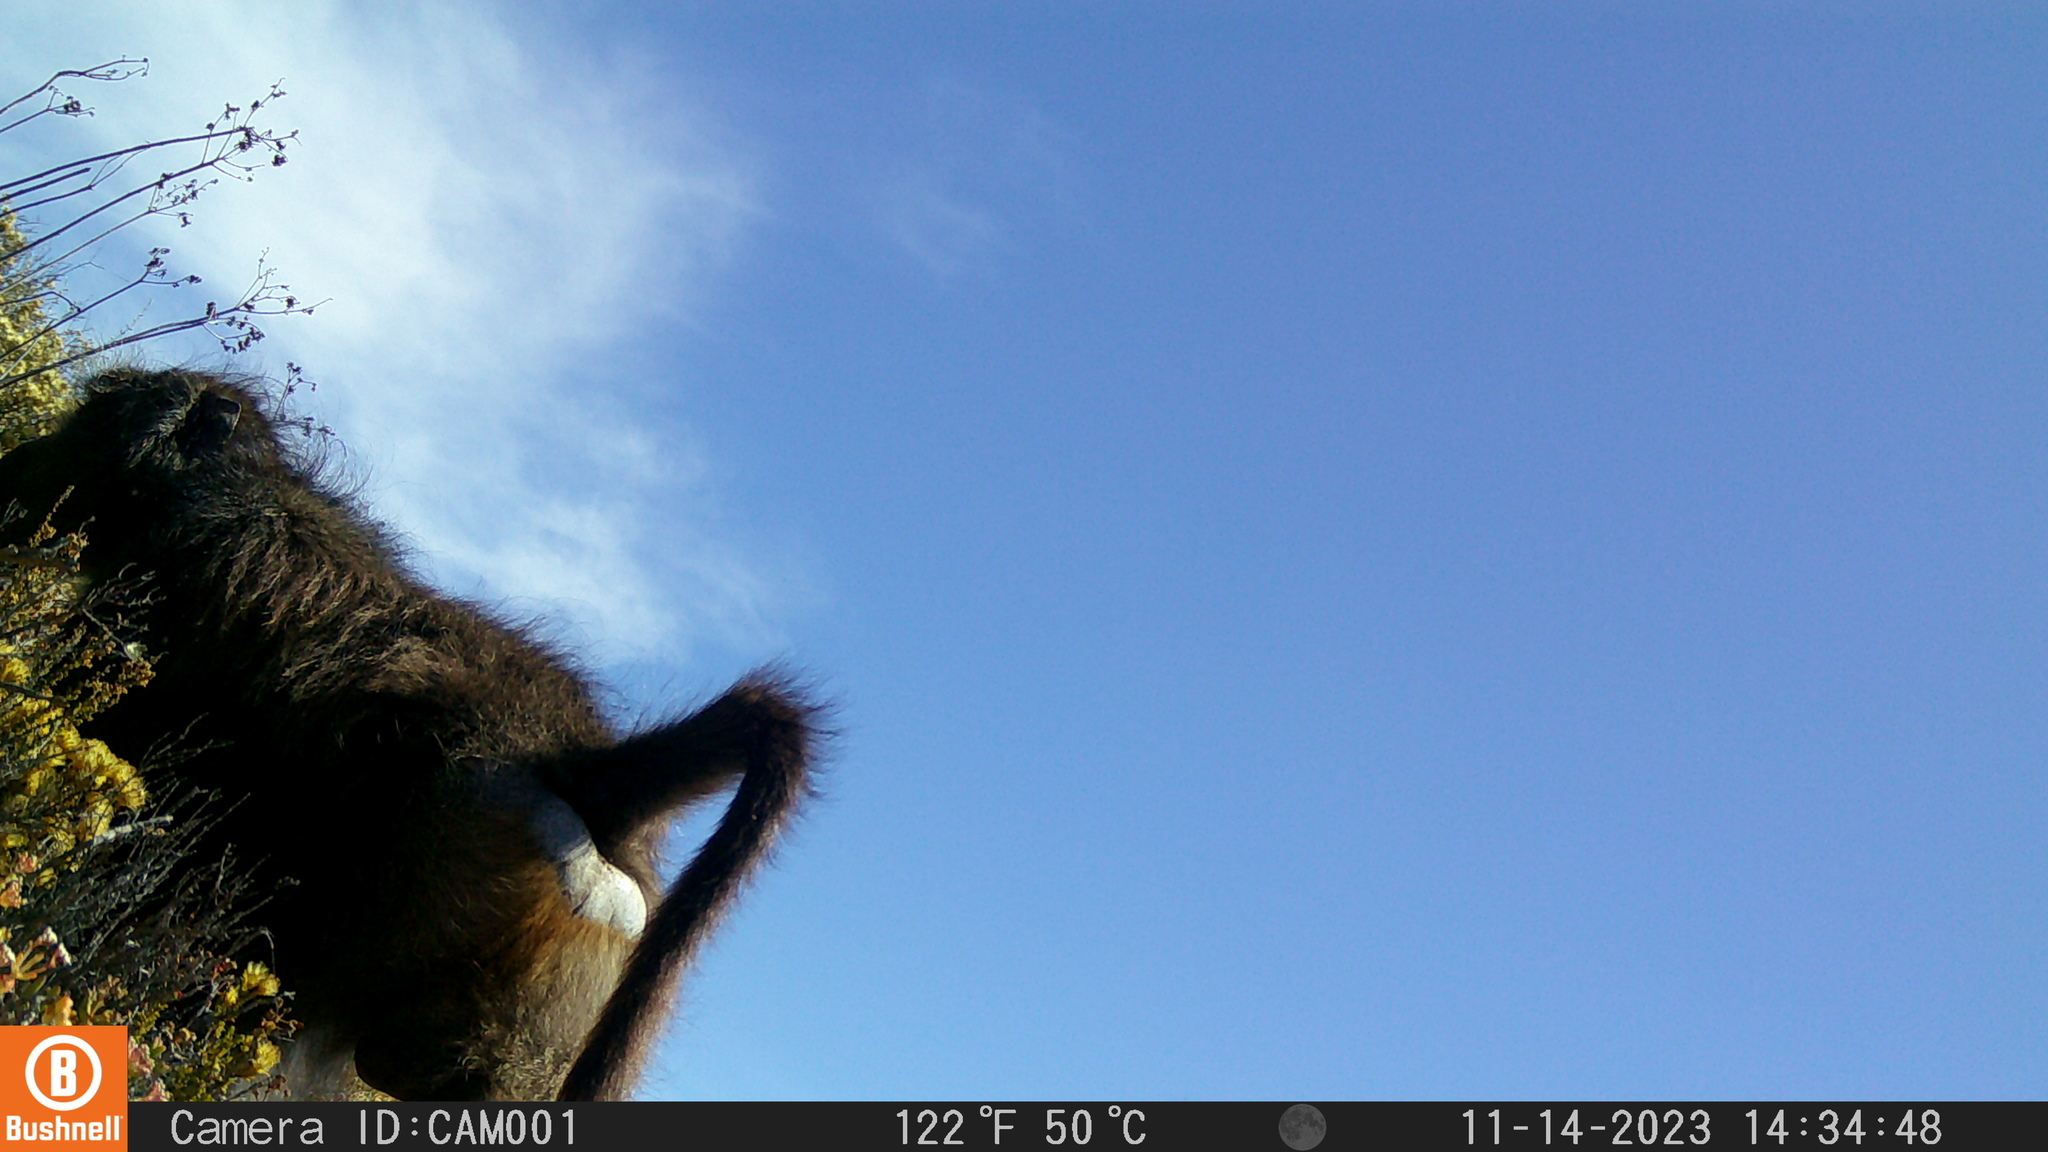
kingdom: Animalia
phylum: Chordata
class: Mammalia
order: Primates
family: Cercopithecidae
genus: Papio
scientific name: Papio ursinus
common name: Chacma baboon
